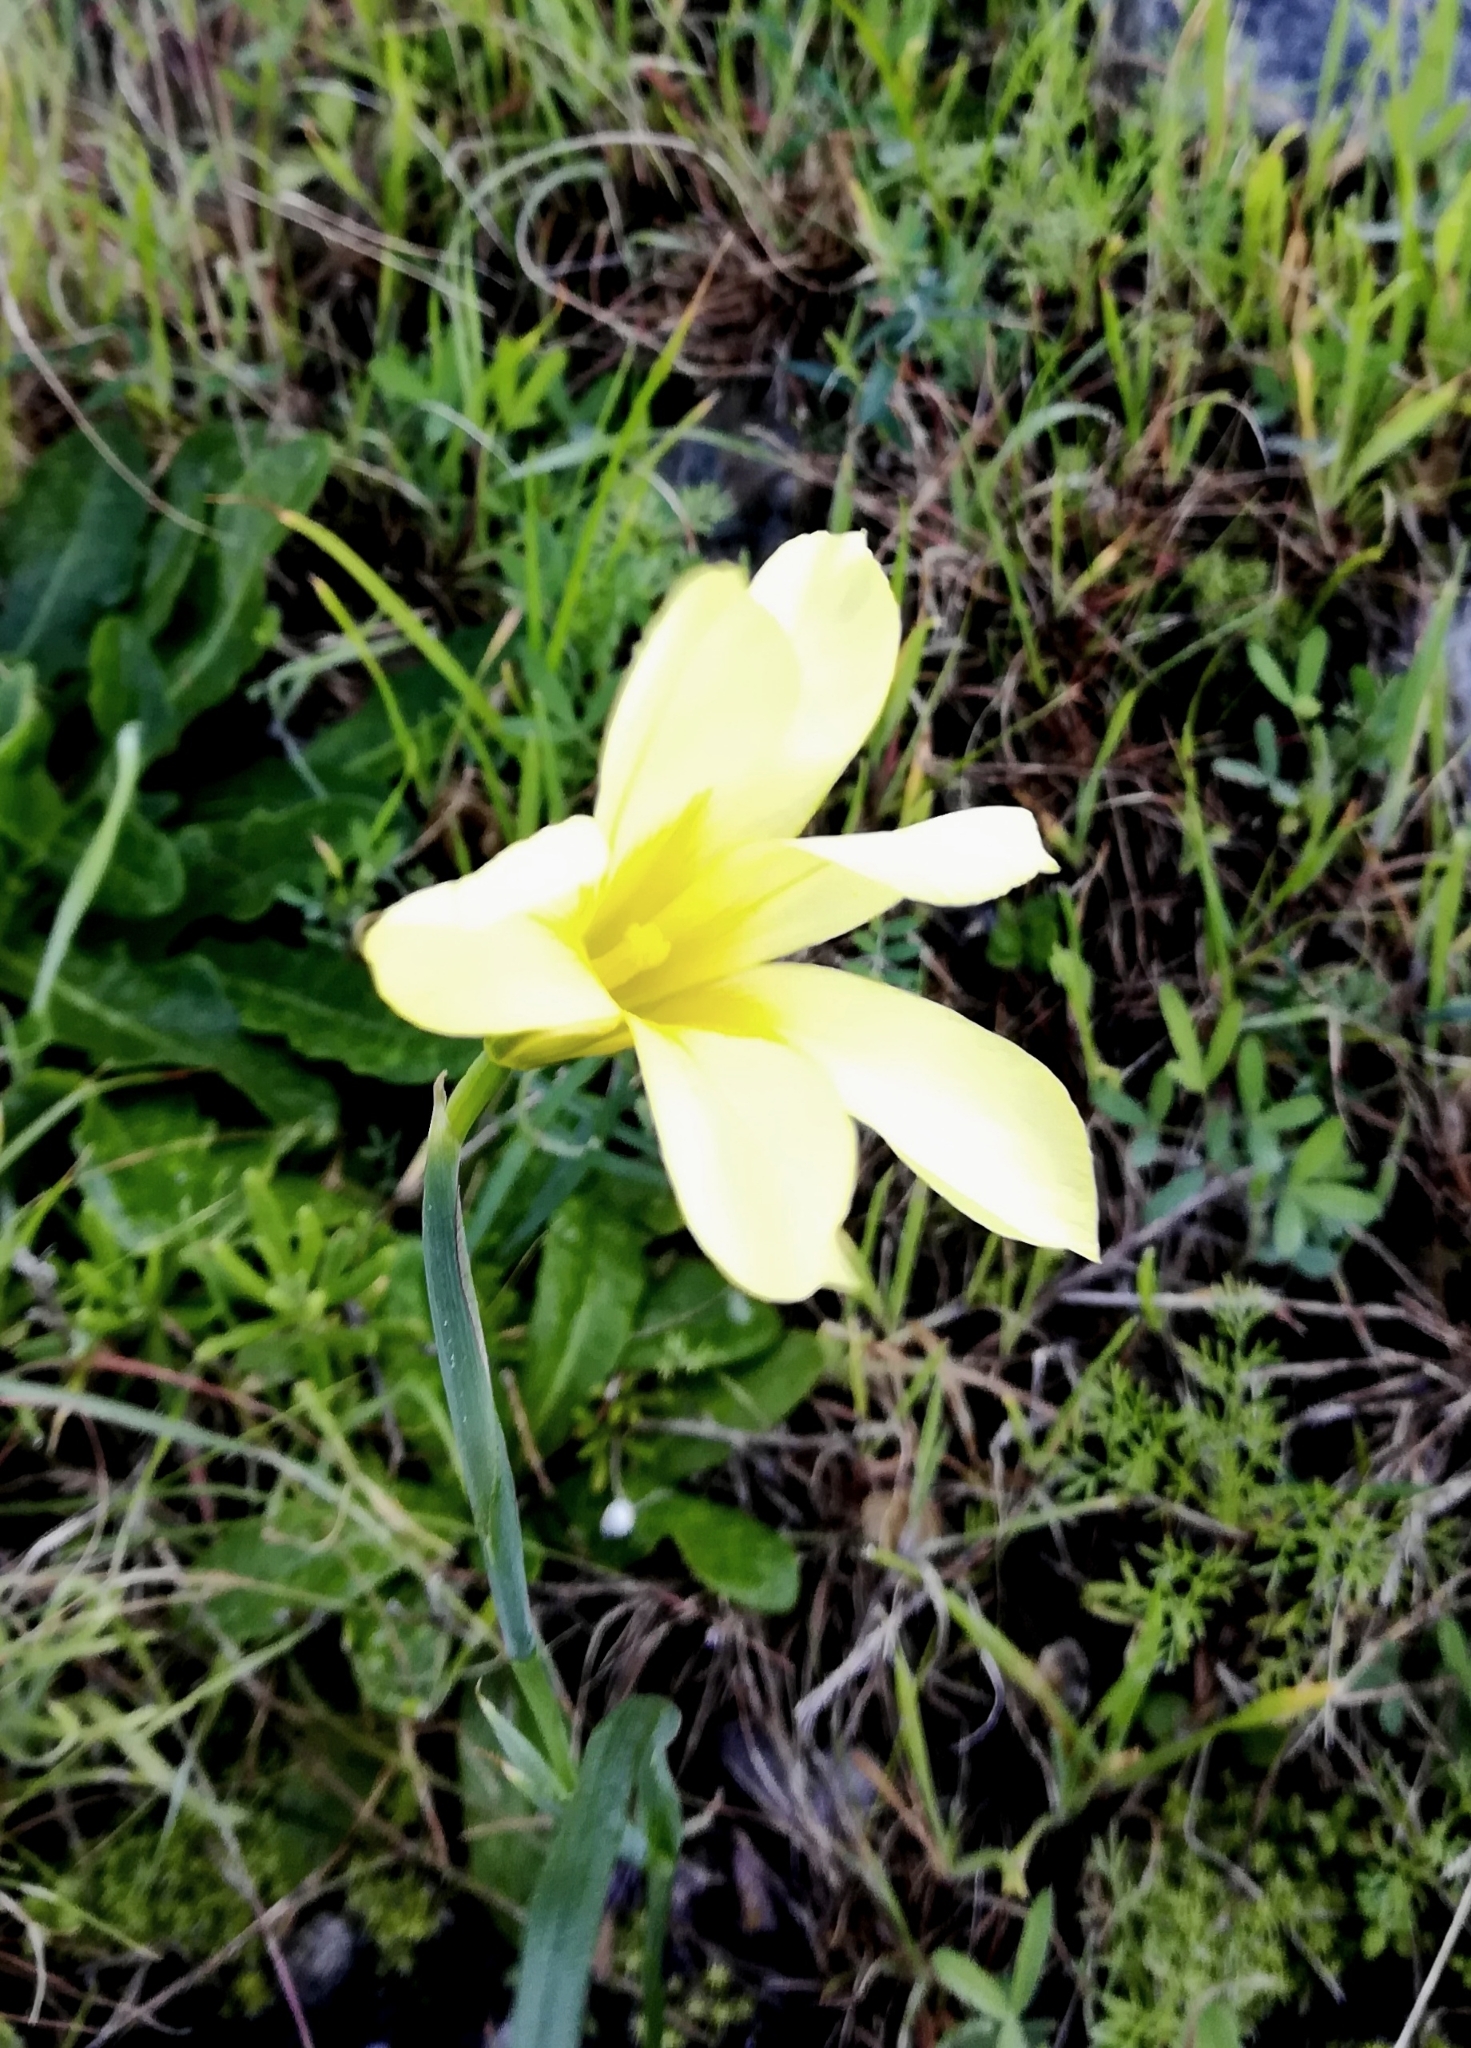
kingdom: Plantae
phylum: Tracheophyta
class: Liliopsida
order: Asparagales
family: Iridaceae
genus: Moraea
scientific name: Moraea ochroleuca
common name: Red tulp
